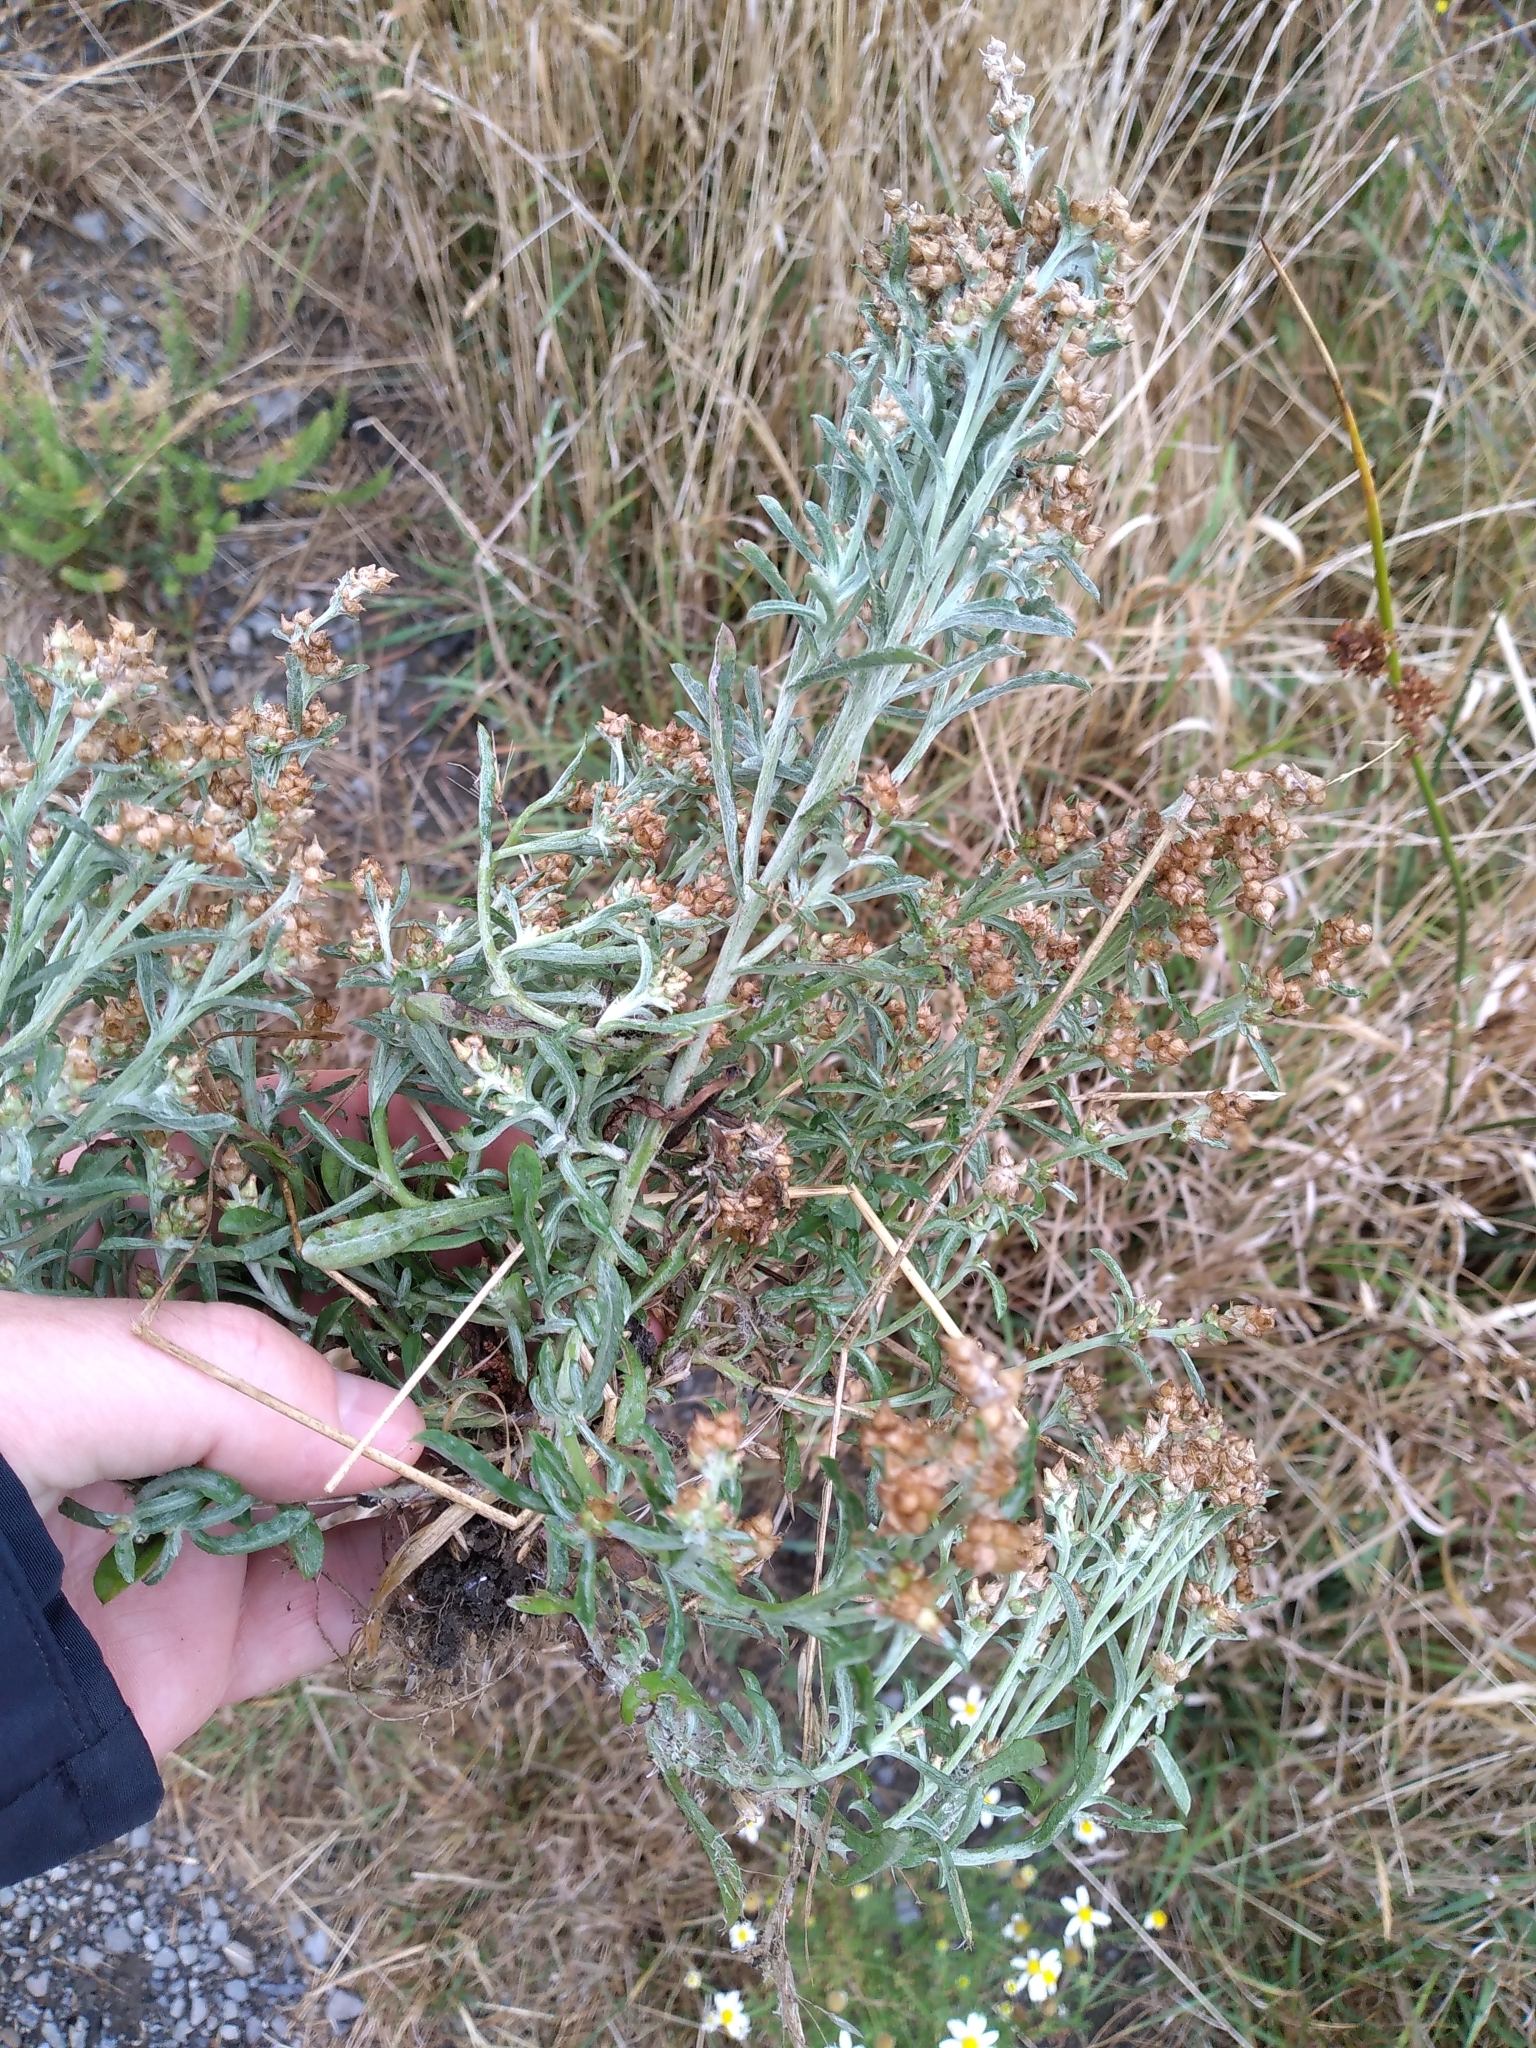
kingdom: Plantae
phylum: Tracheophyta
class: Magnoliopsida
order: Asterales
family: Asteraceae
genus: Gamochaeta
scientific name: Gamochaeta calviceps
